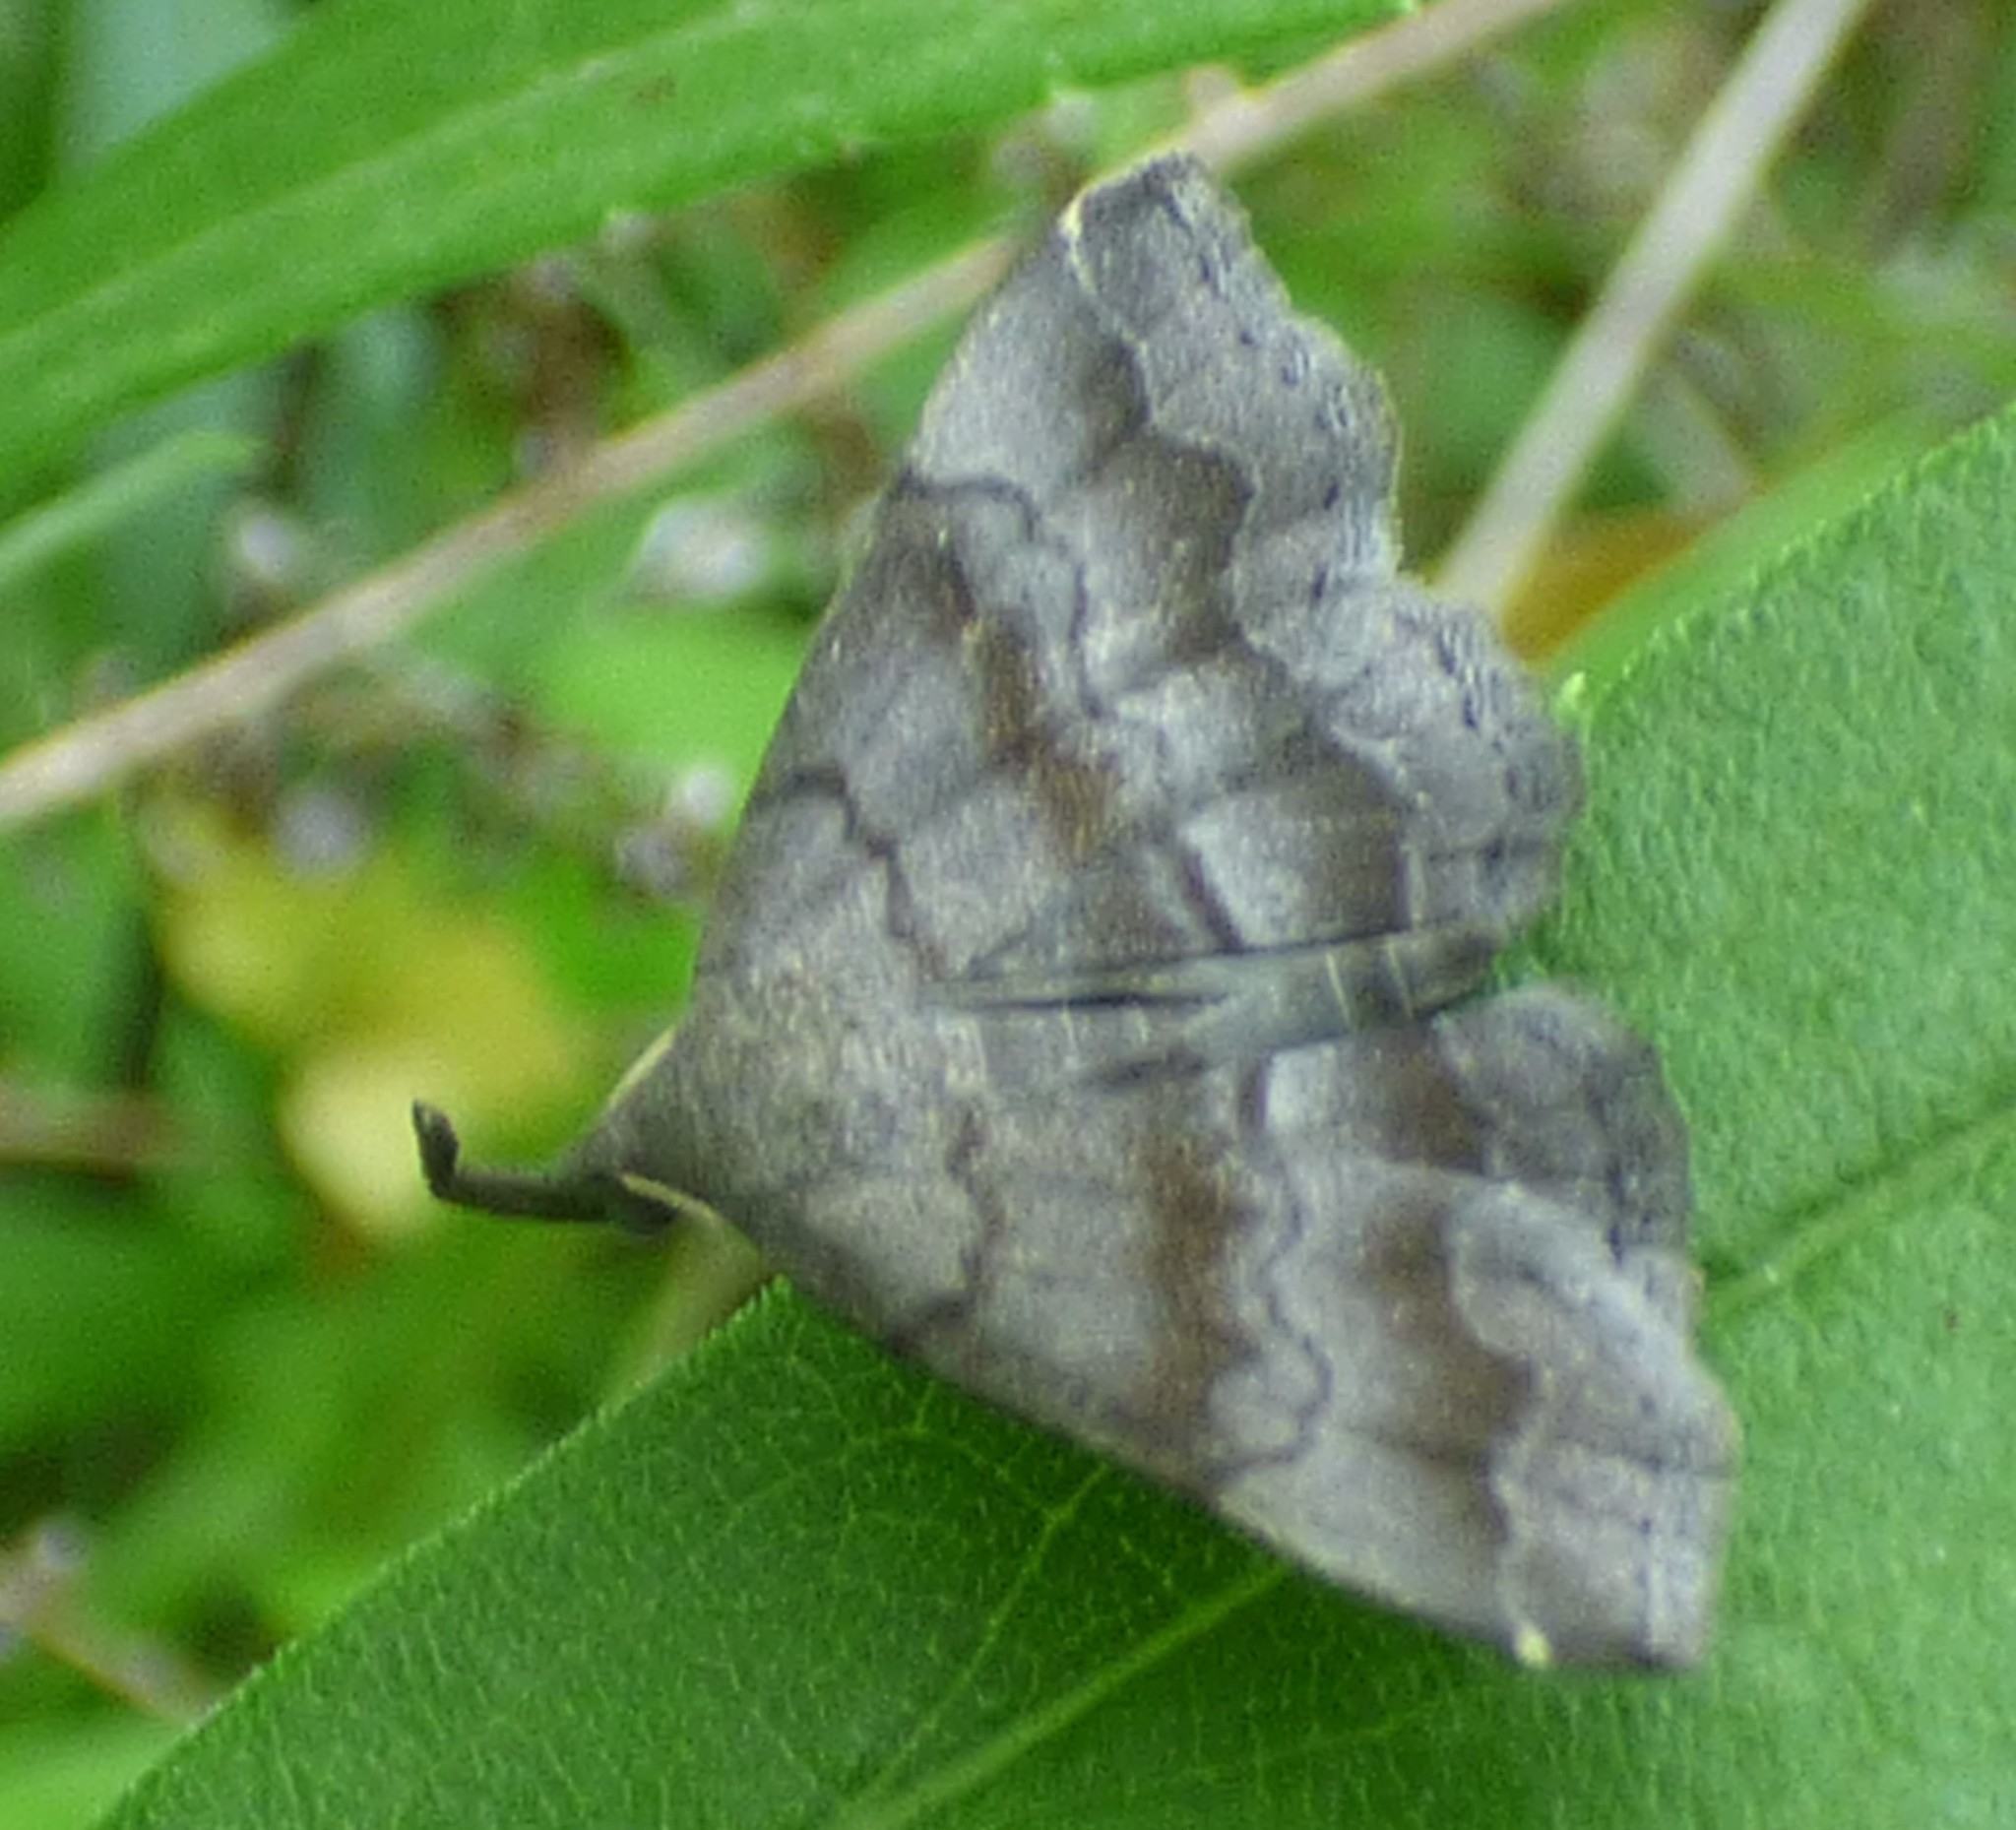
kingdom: Animalia
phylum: Arthropoda
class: Insecta
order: Lepidoptera
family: Erebidae
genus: Phalaenostola
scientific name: Phalaenostola larentioides
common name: Black-banded owlet
